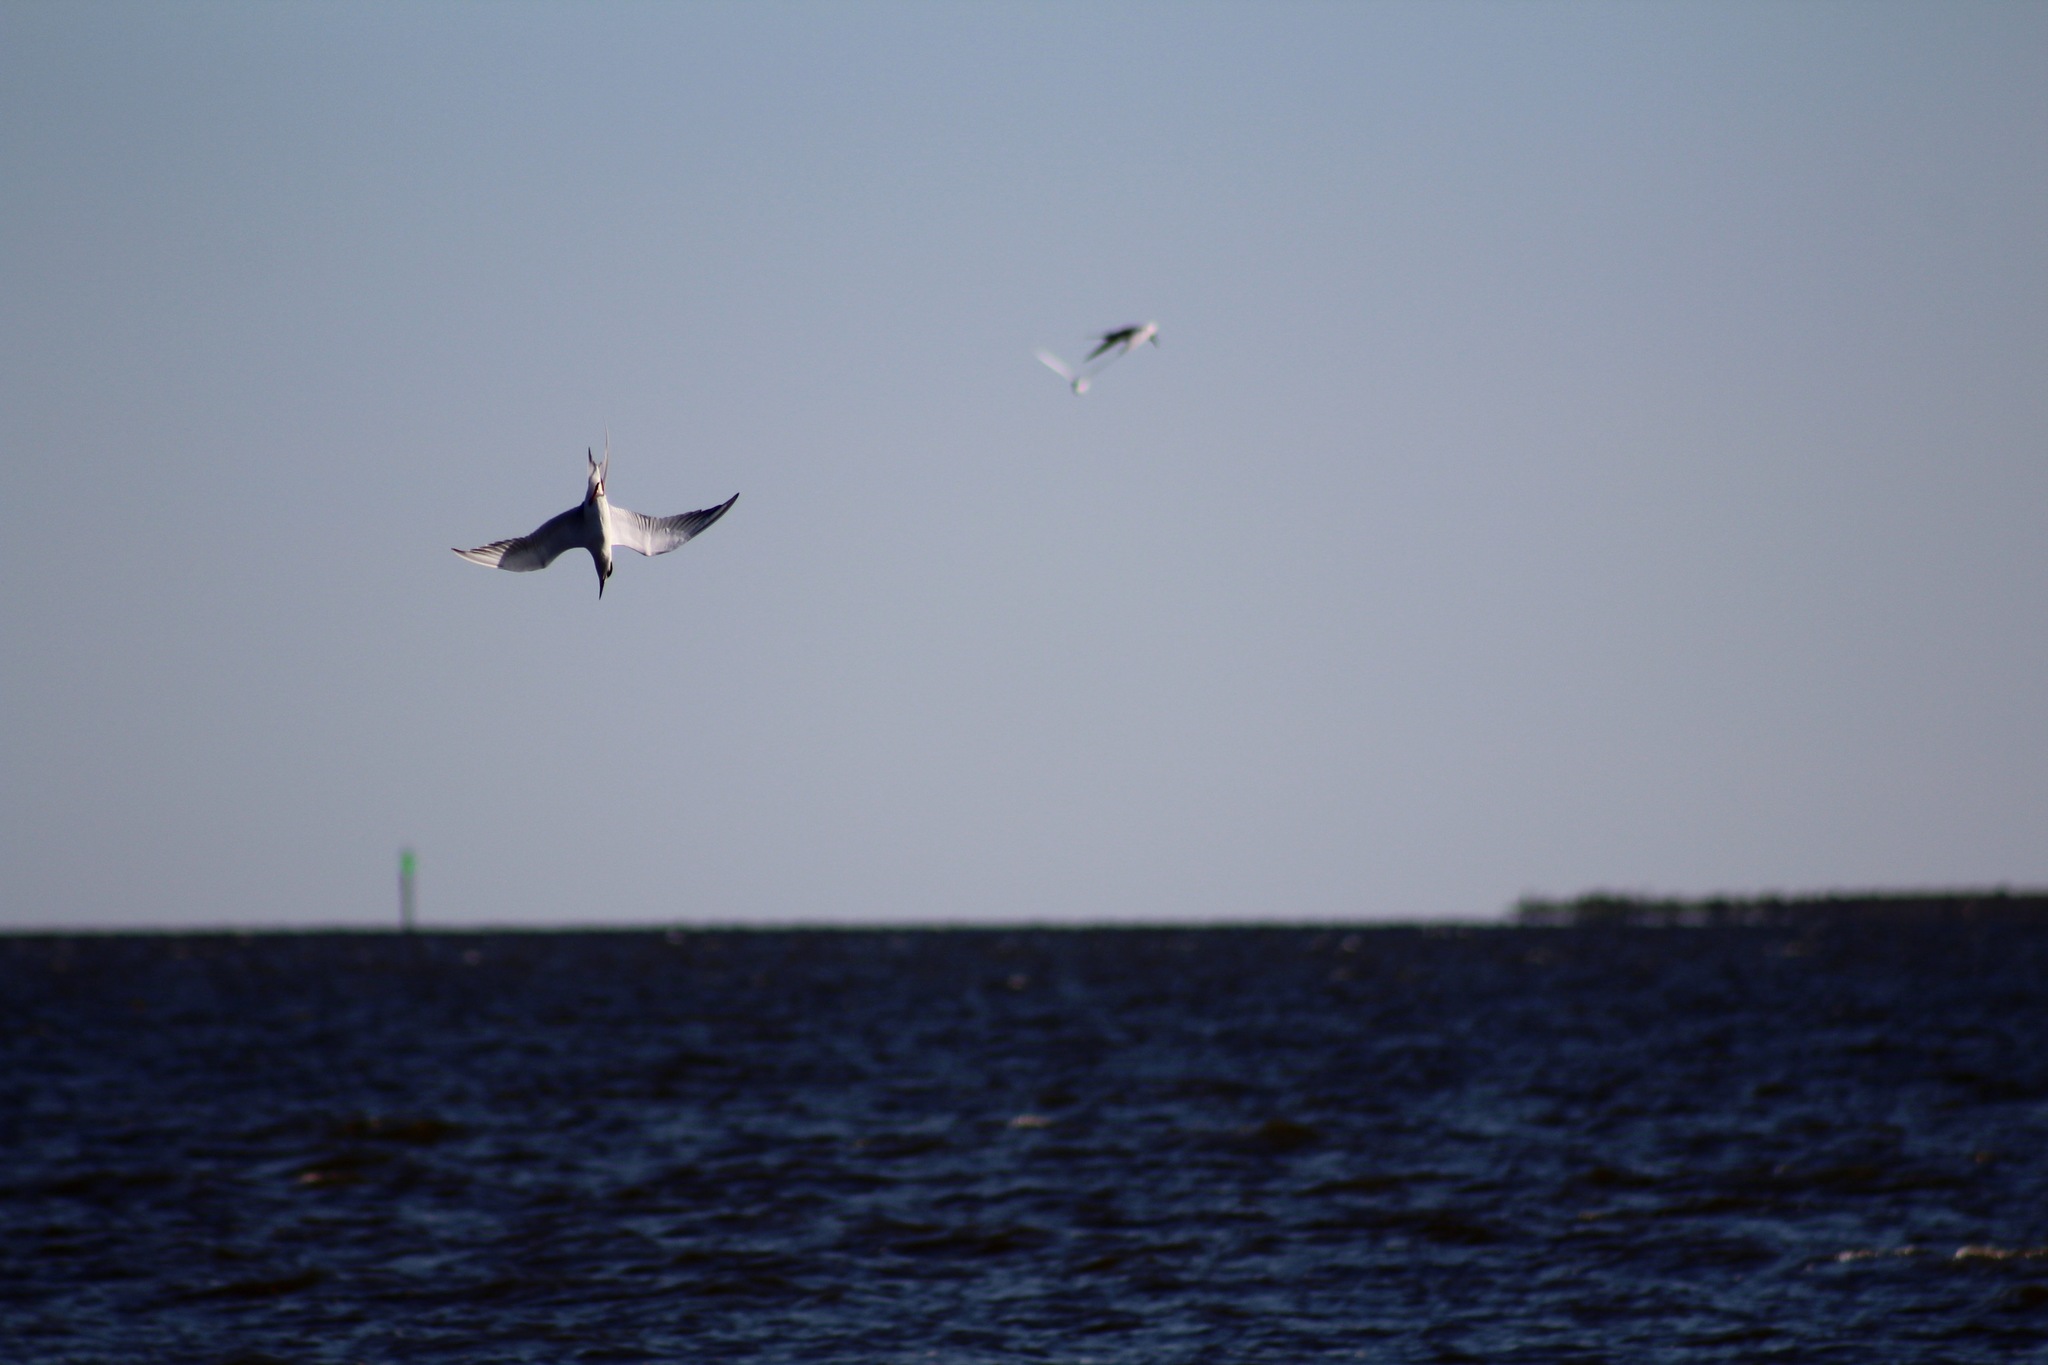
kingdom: Animalia
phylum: Chordata
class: Aves
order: Charadriiformes
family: Laridae
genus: Thalasseus
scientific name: Thalasseus sandvicensis
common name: Sandwich tern
